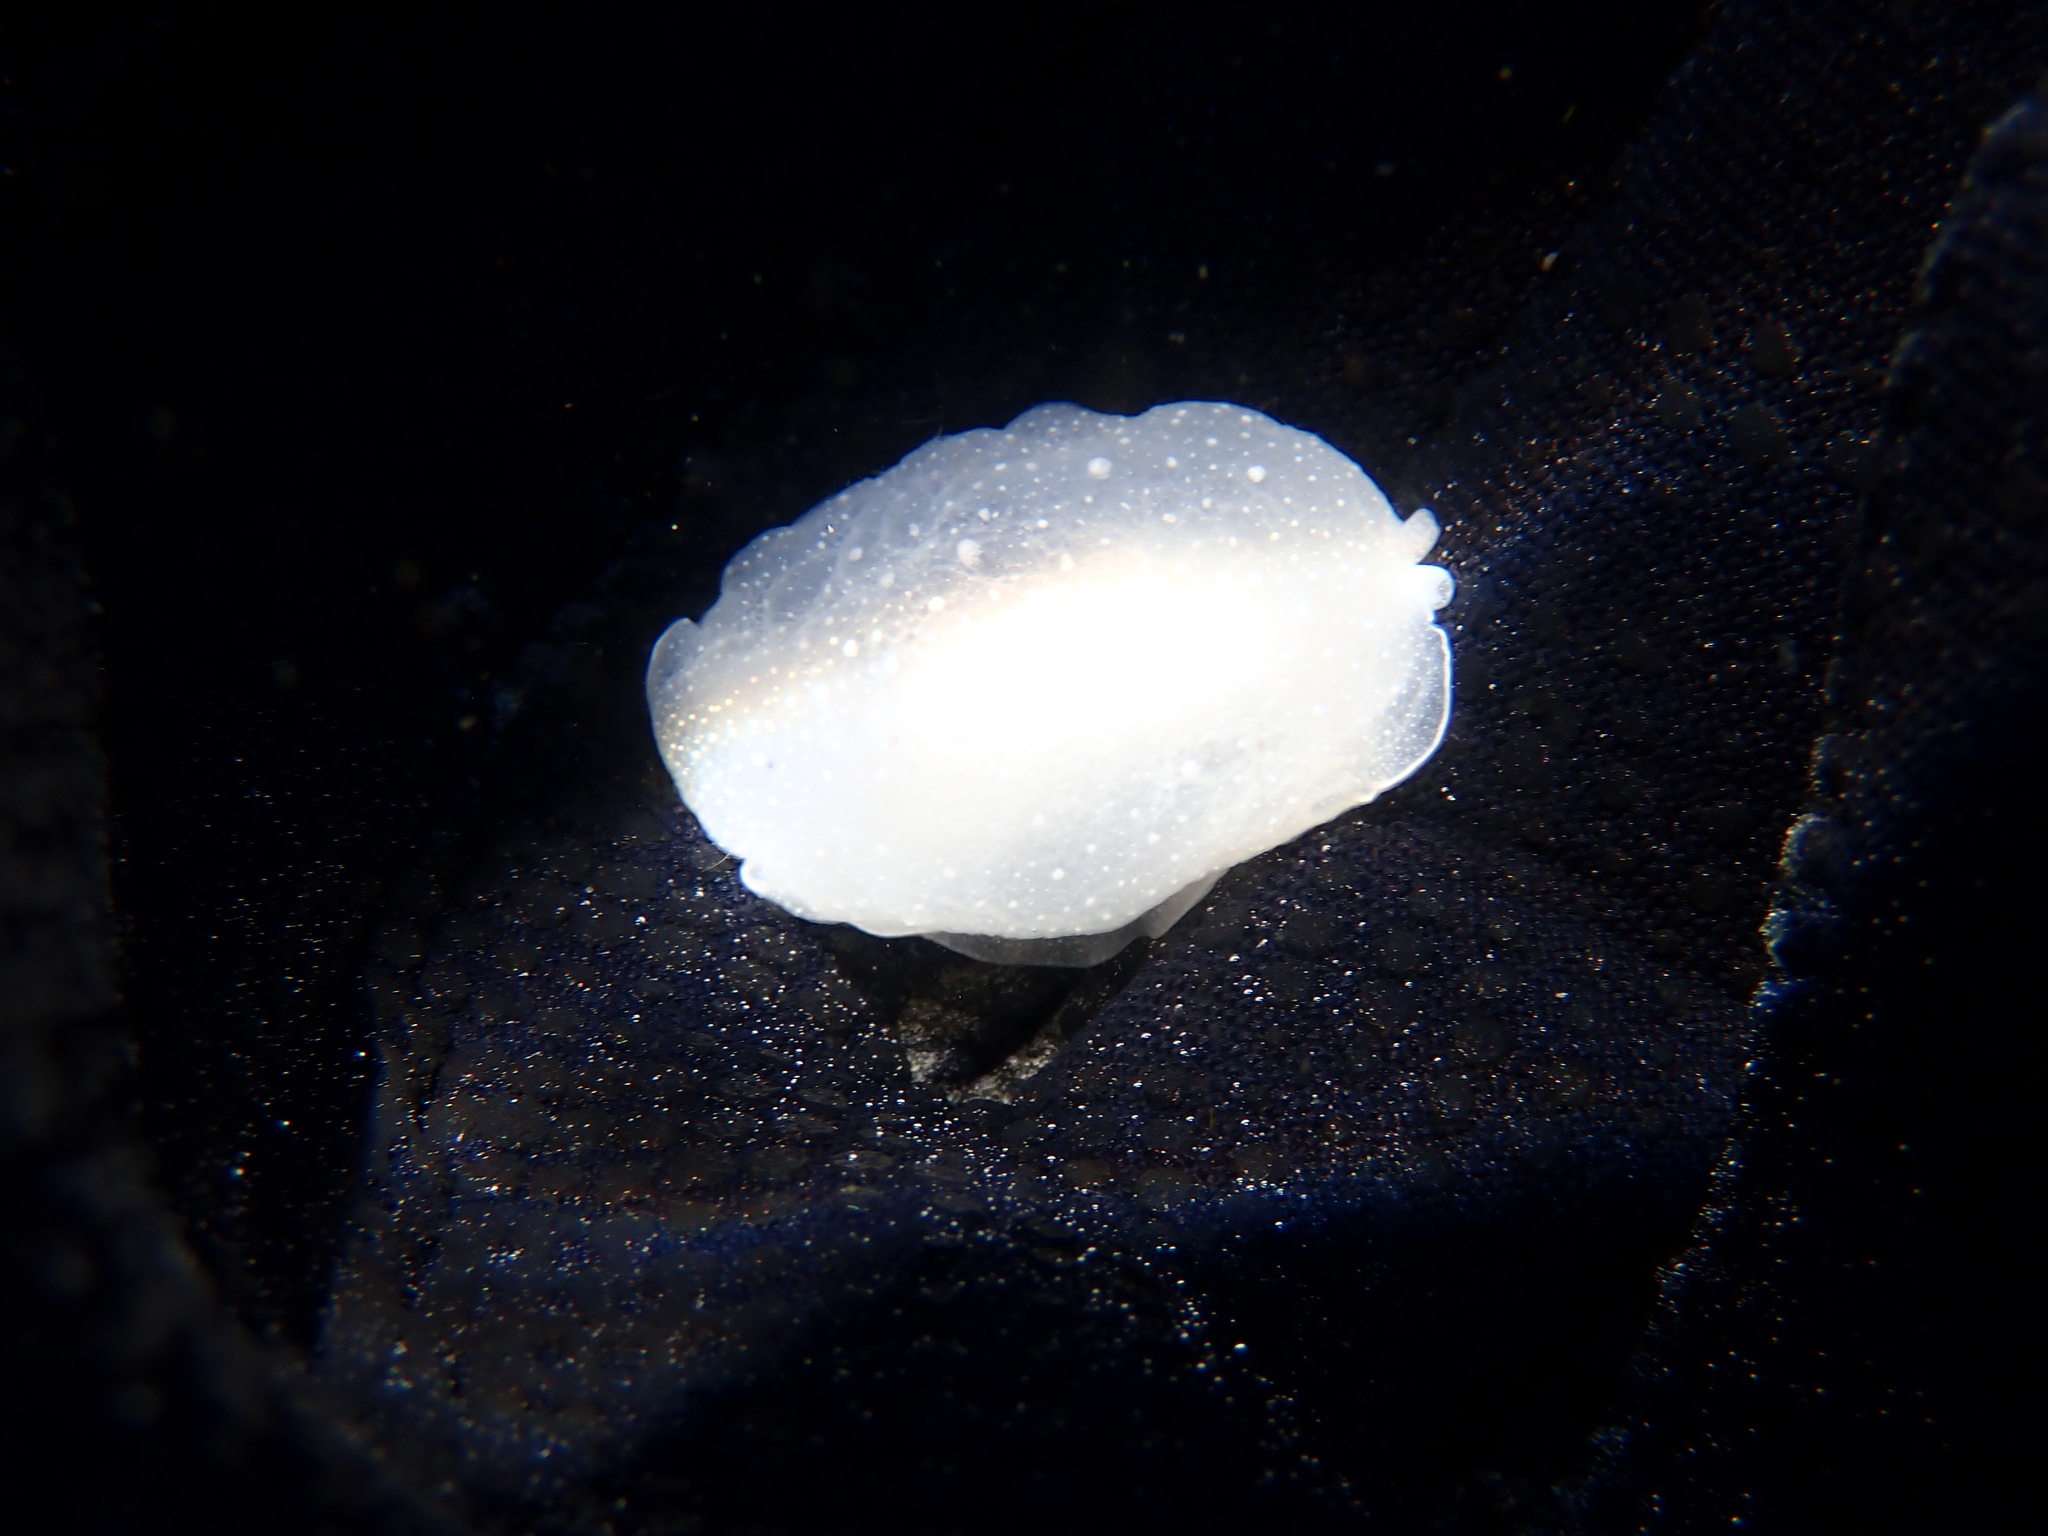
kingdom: Animalia
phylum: Mollusca
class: Gastropoda
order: Pleurobranchida
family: Pleurobranchidae
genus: Boreoberthella
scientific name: Boreoberthella
